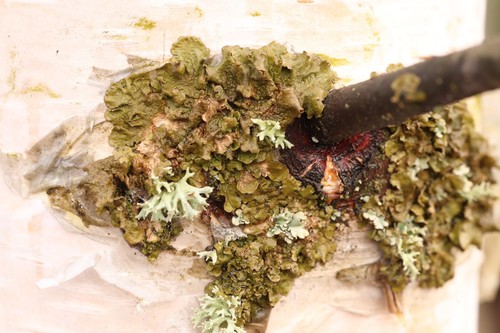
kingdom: Fungi
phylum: Ascomycota
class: Lecanoromycetes
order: Lecanorales
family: Parmeliaceae
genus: Melanohalea
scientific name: Melanohalea olivacea
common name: Spotted camouflage lichen
